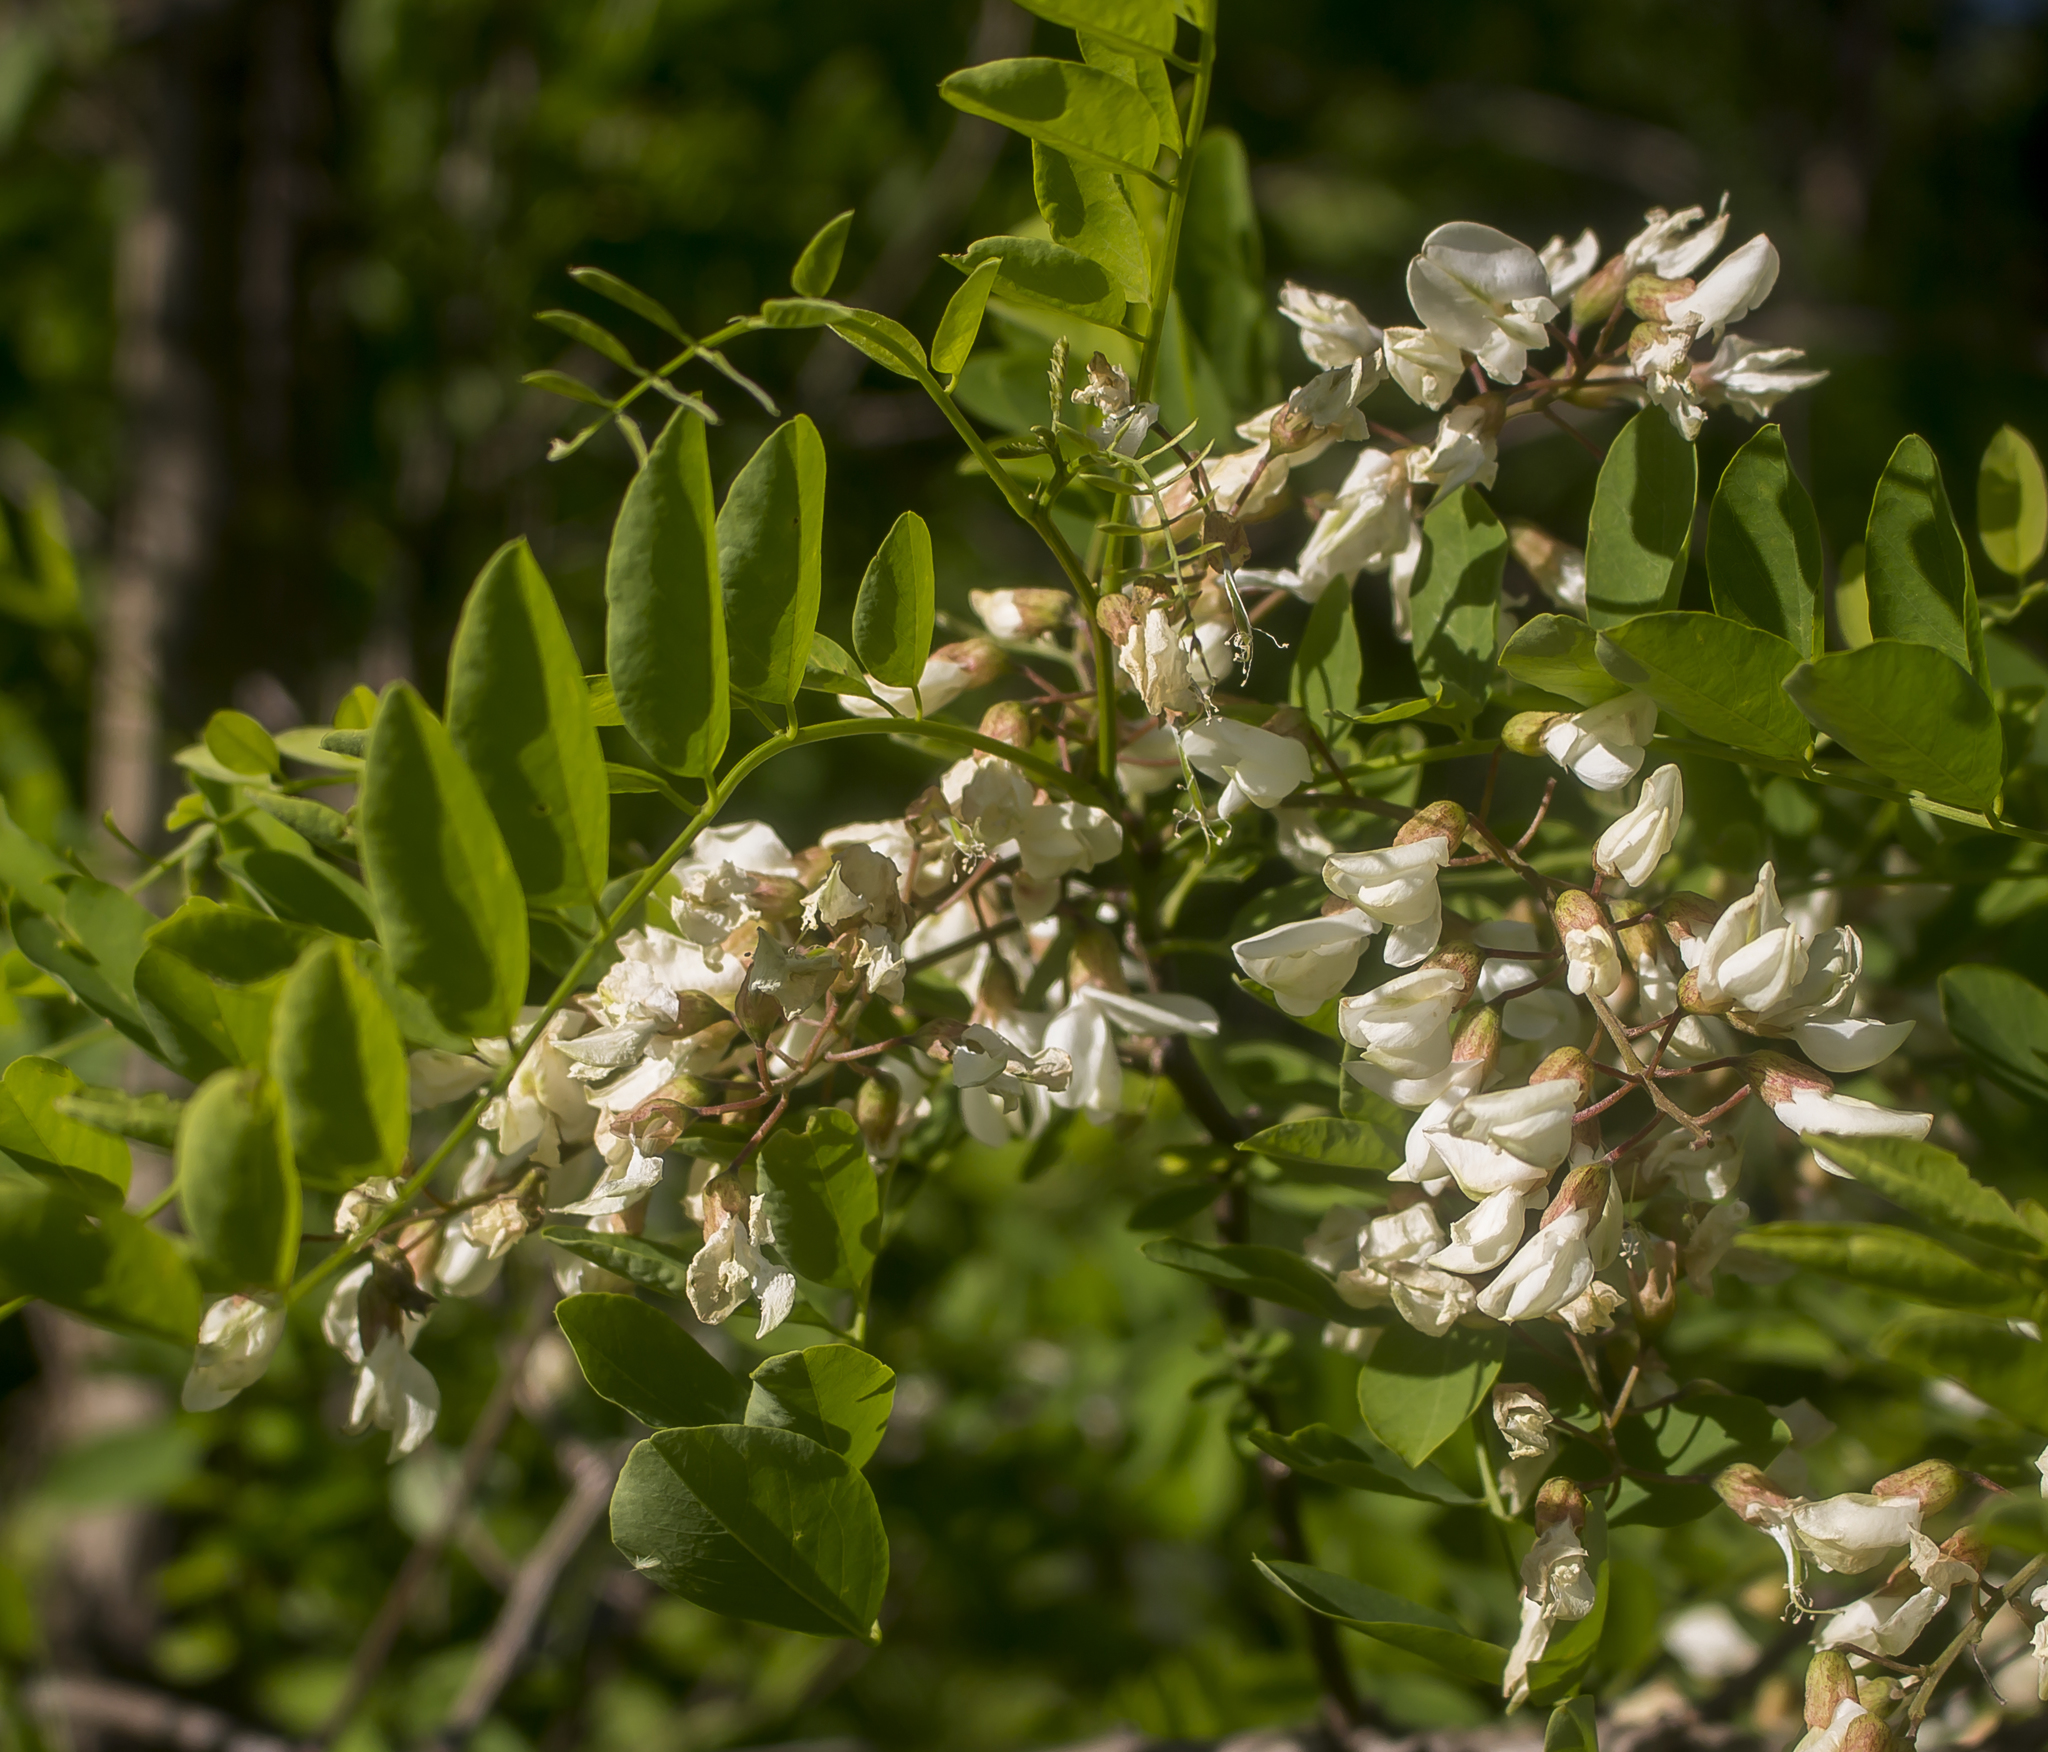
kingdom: Plantae
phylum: Tracheophyta
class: Magnoliopsida
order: Fabales
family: Fabaceae
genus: Robinia
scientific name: Robinia pseudoacacia
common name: Black locust
